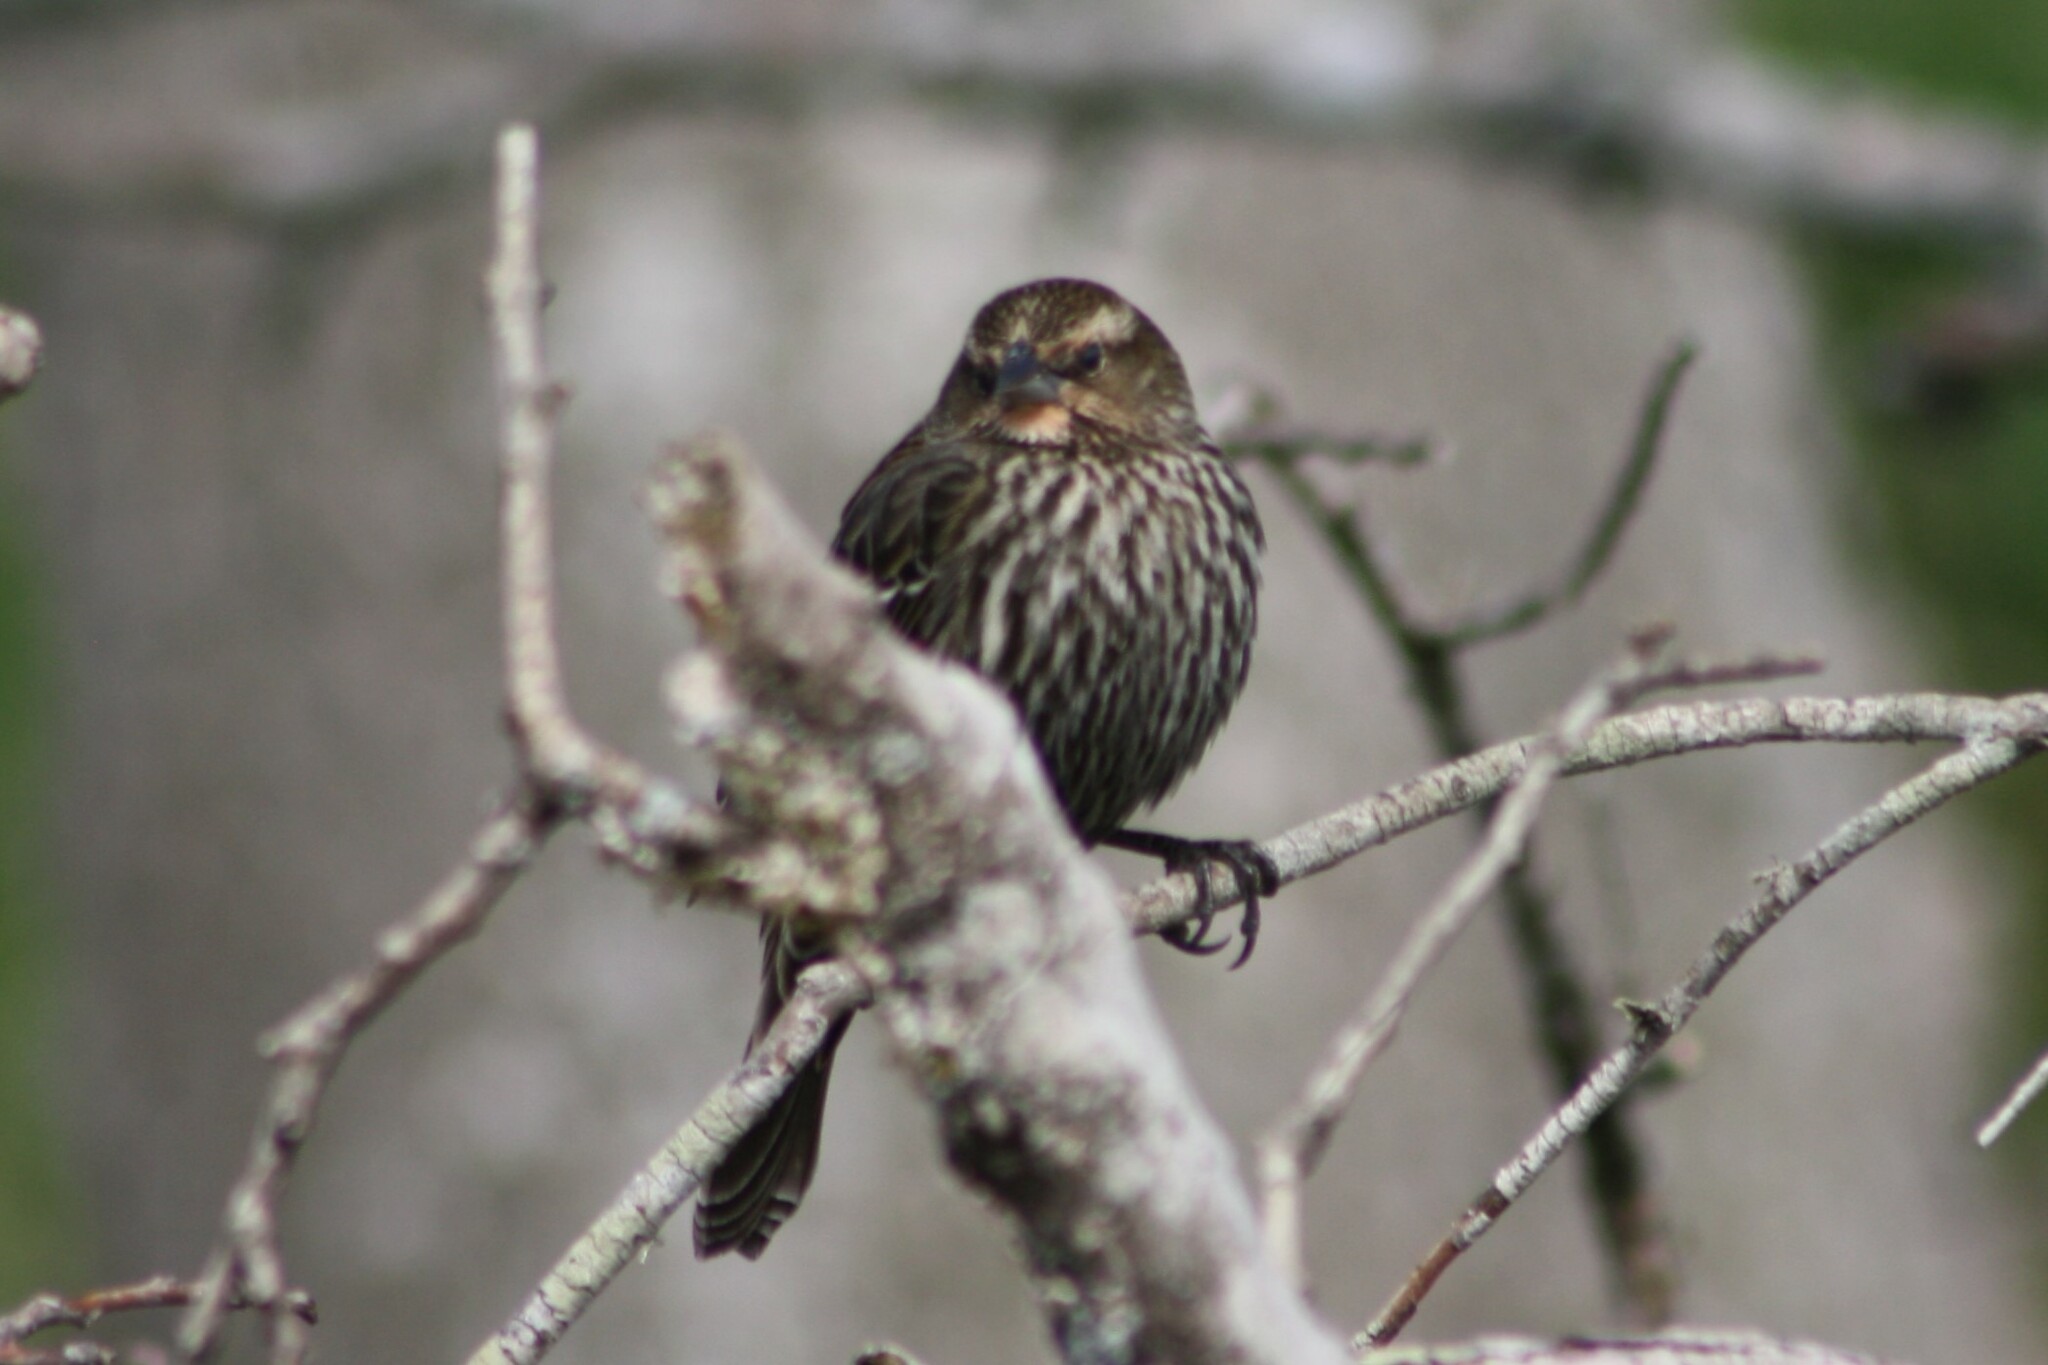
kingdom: Animalia
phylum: Chordata
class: Aves
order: Passeriformes
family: Icteridae
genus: Agelaius
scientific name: Agelaius phoeniceus
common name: Red-winged blackbird
